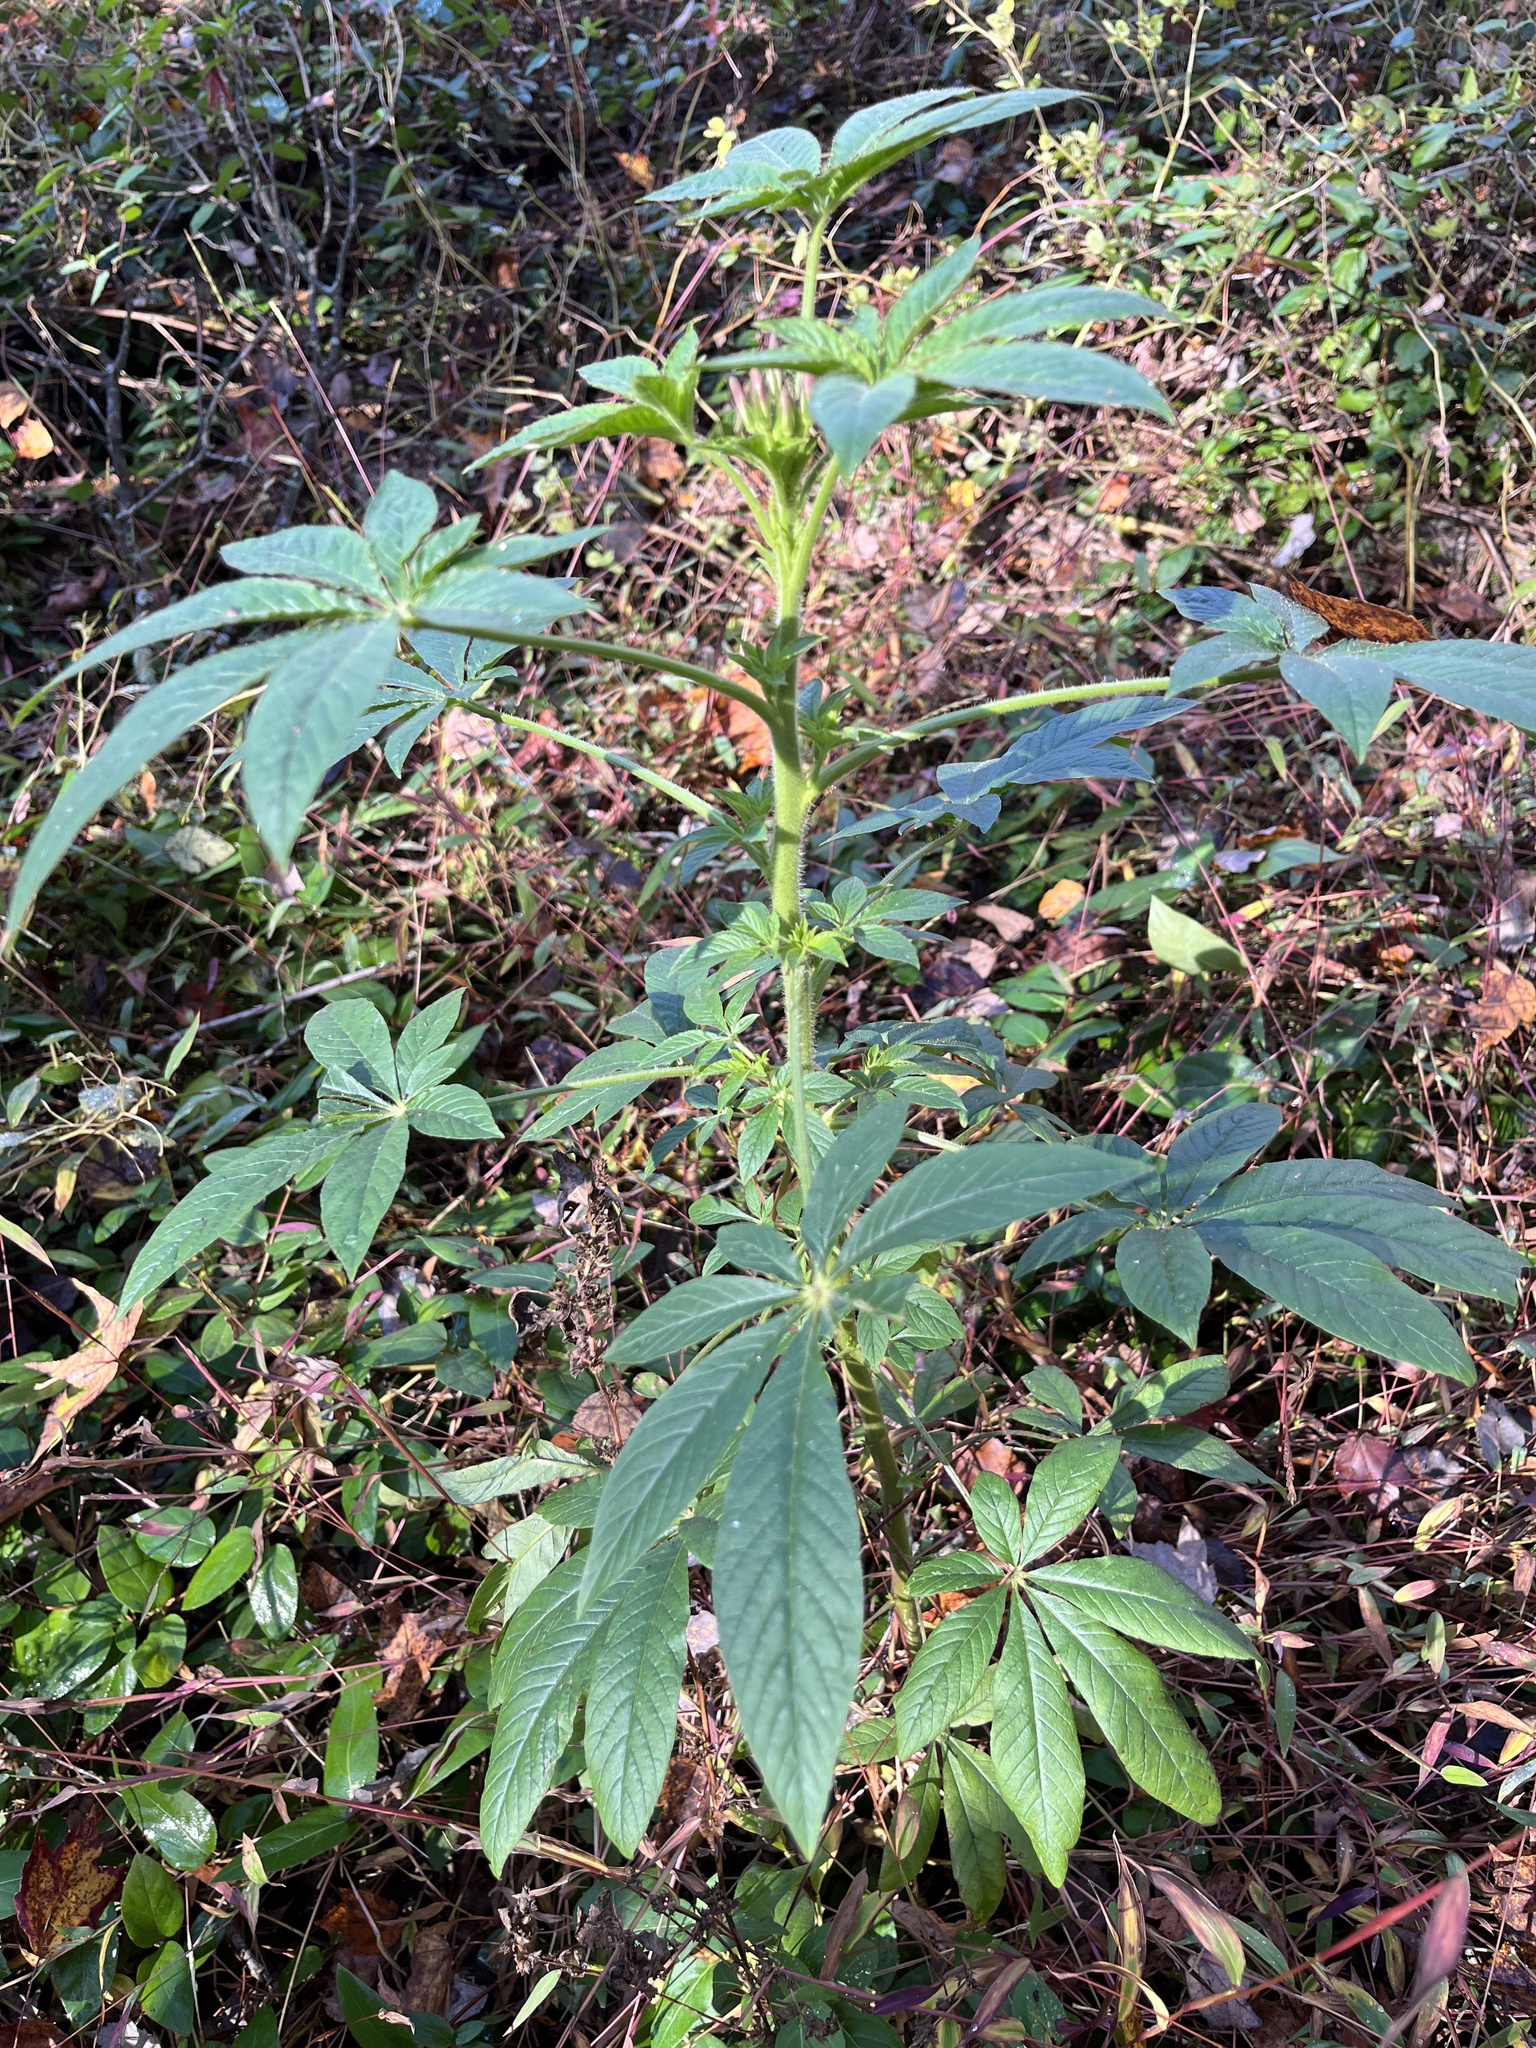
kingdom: Plantae
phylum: Tracheophyta
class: Magnoliopsida
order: Brassicales
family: Cleomaceae
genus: Tarenaya
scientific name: Tarenaya houtteana
